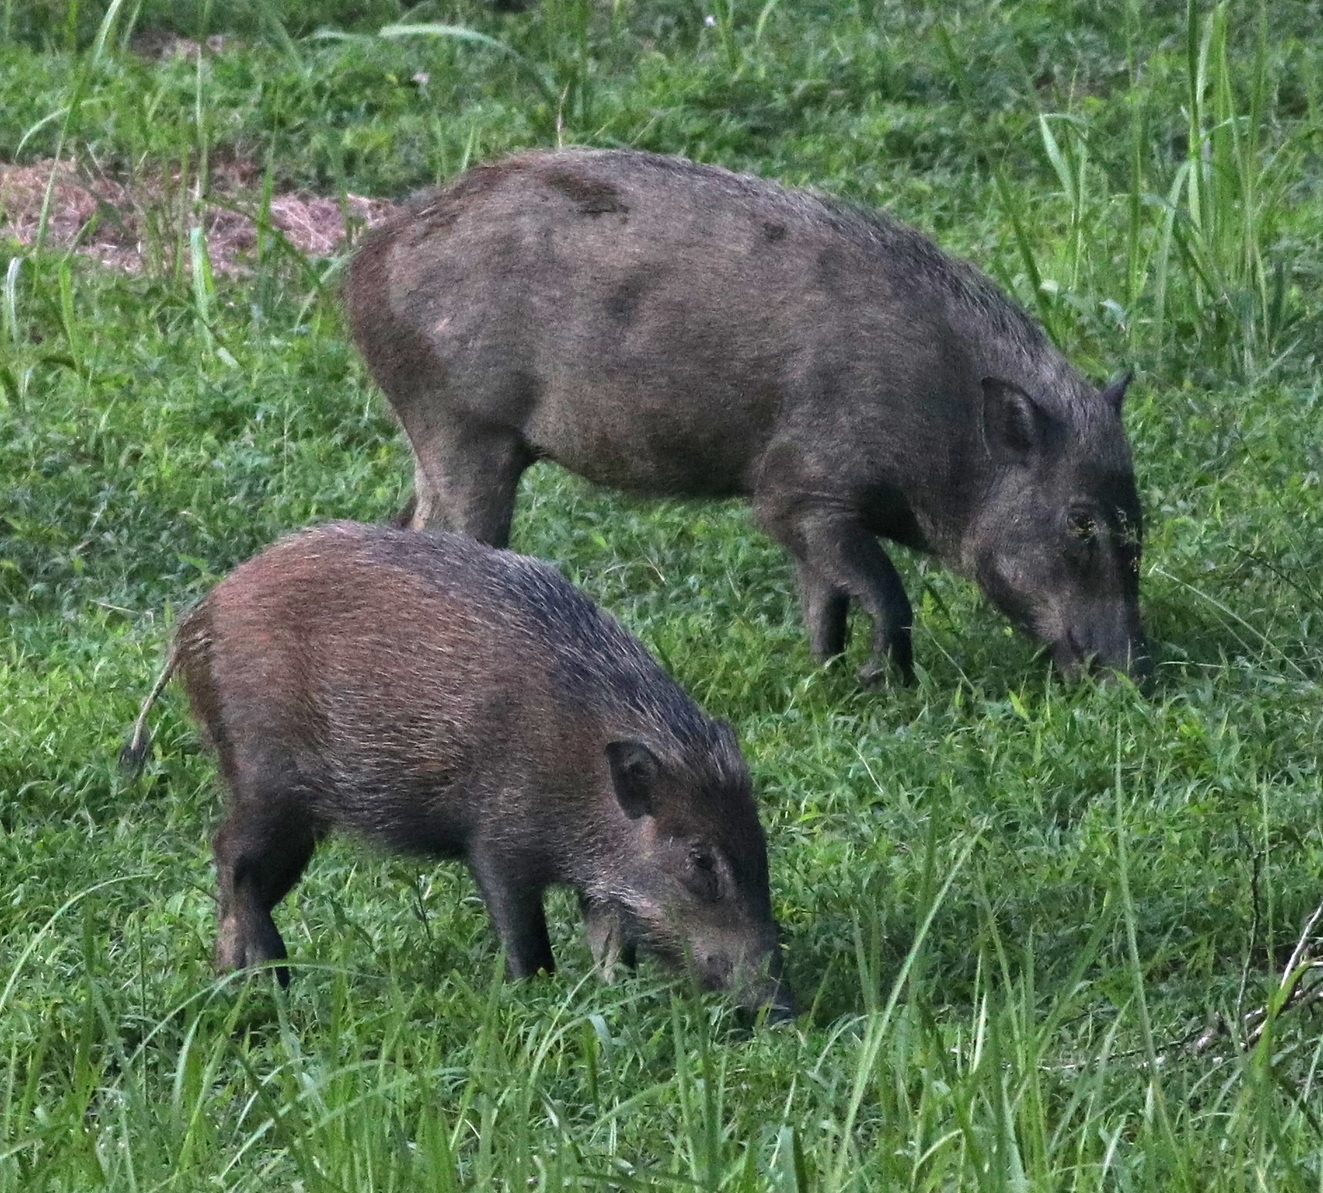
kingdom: Animalia
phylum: Chordata
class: Mammalia
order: Artiodactyla
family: Suidae
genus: Sus
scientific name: Sus scrofa
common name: Wild boar
